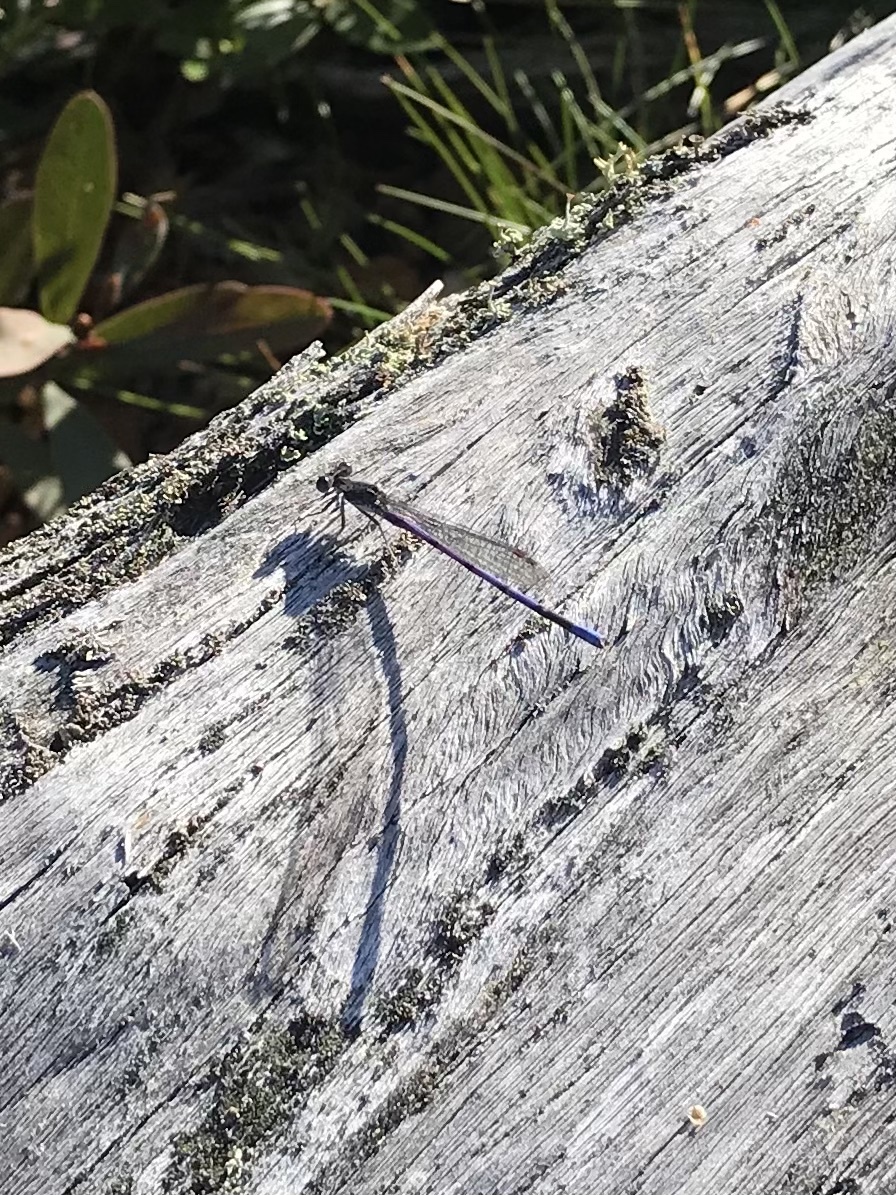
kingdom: Animalia
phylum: Arthropoda
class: Insecta
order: Odonata
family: Coenagrionidae
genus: Argia
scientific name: Argia fumipennis
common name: Variable dancer
